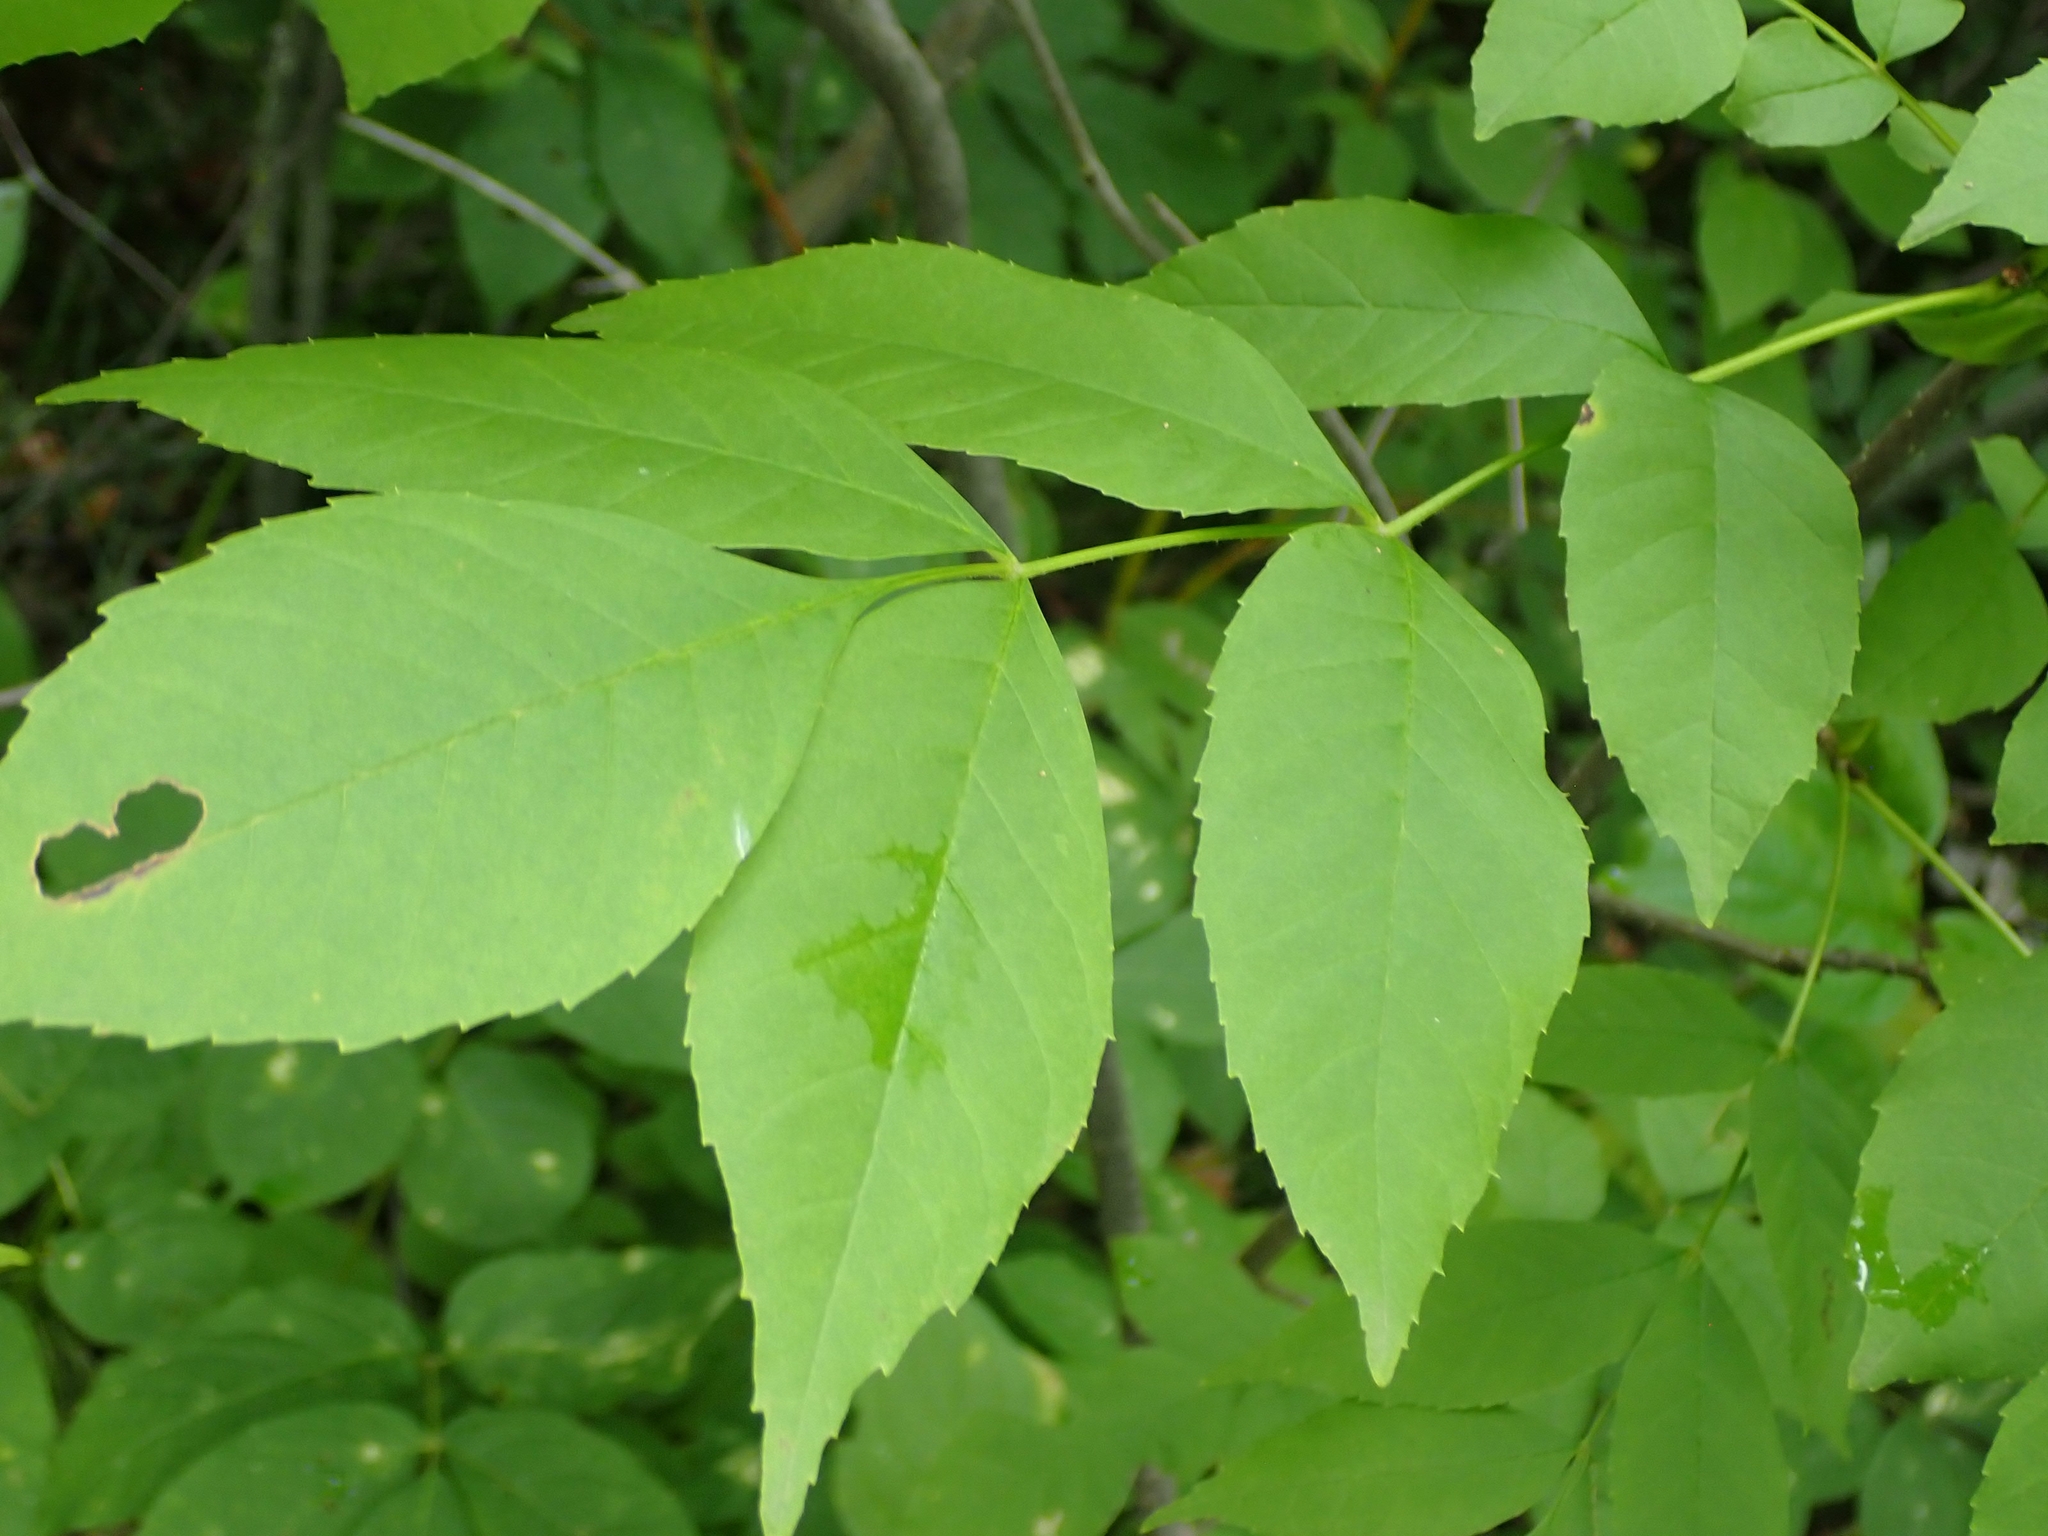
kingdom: Plantae
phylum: Tracheophyta
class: Magnoliopsida
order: Lamiales
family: Oleaceae
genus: Fraxinus
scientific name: Fraxinus pennsylvanica
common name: Green ash
